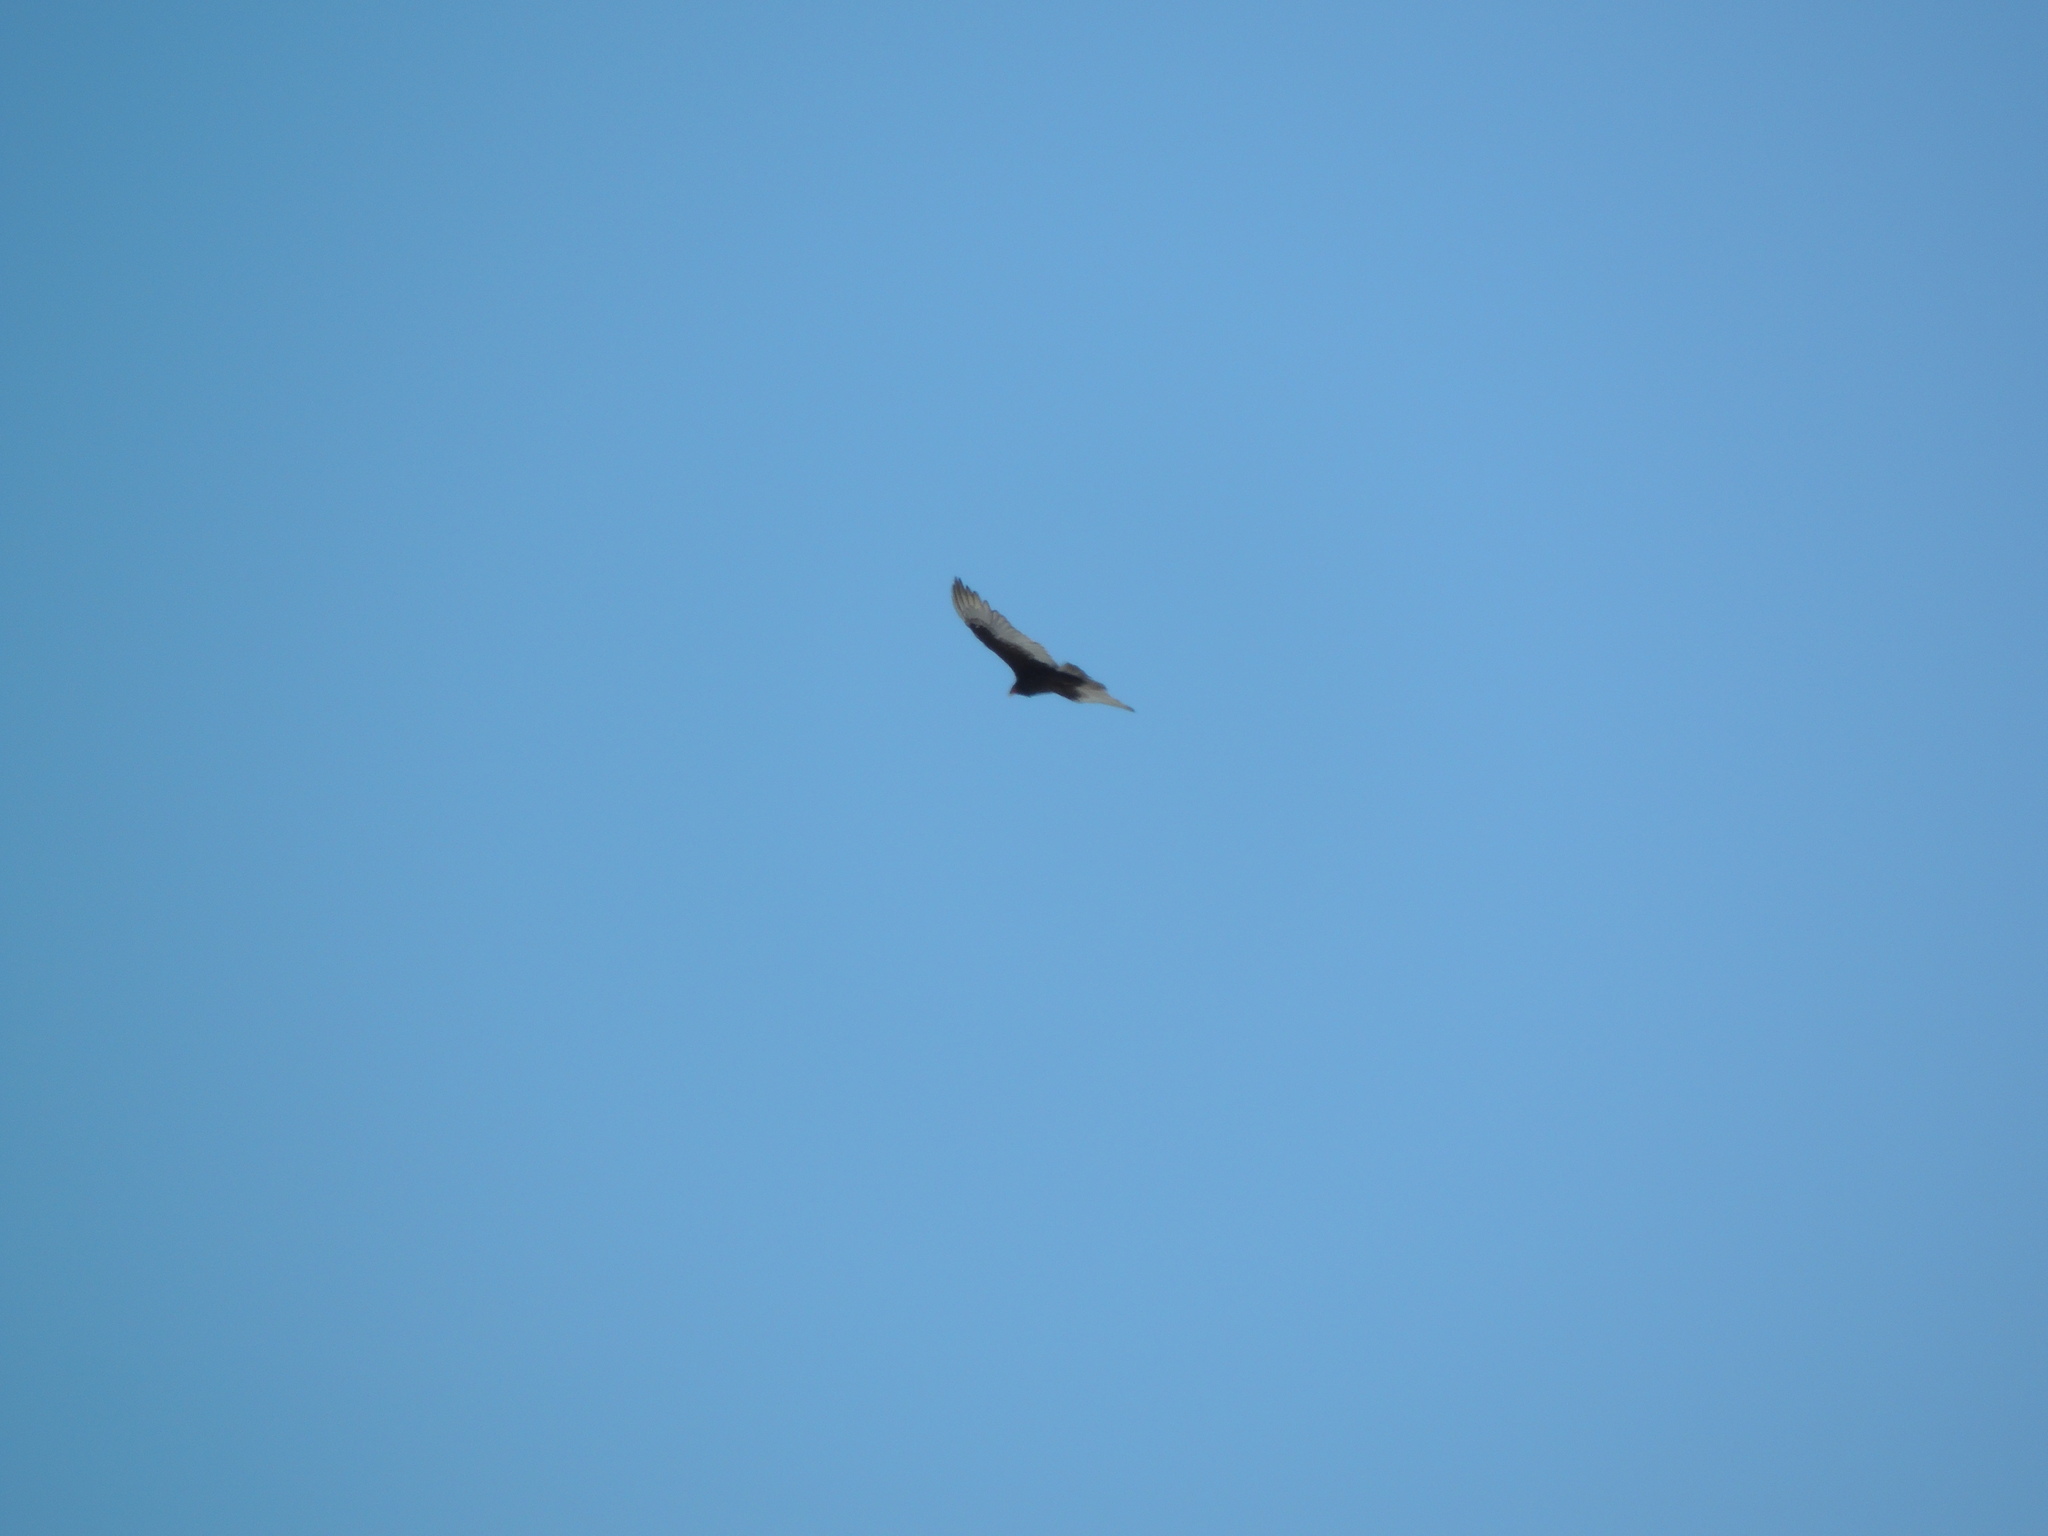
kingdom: Animalia
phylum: Chordata
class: Aves
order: Accipitriformes
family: Cathartidae
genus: Cathartes
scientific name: Cathartes aura
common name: Turkey vulture
